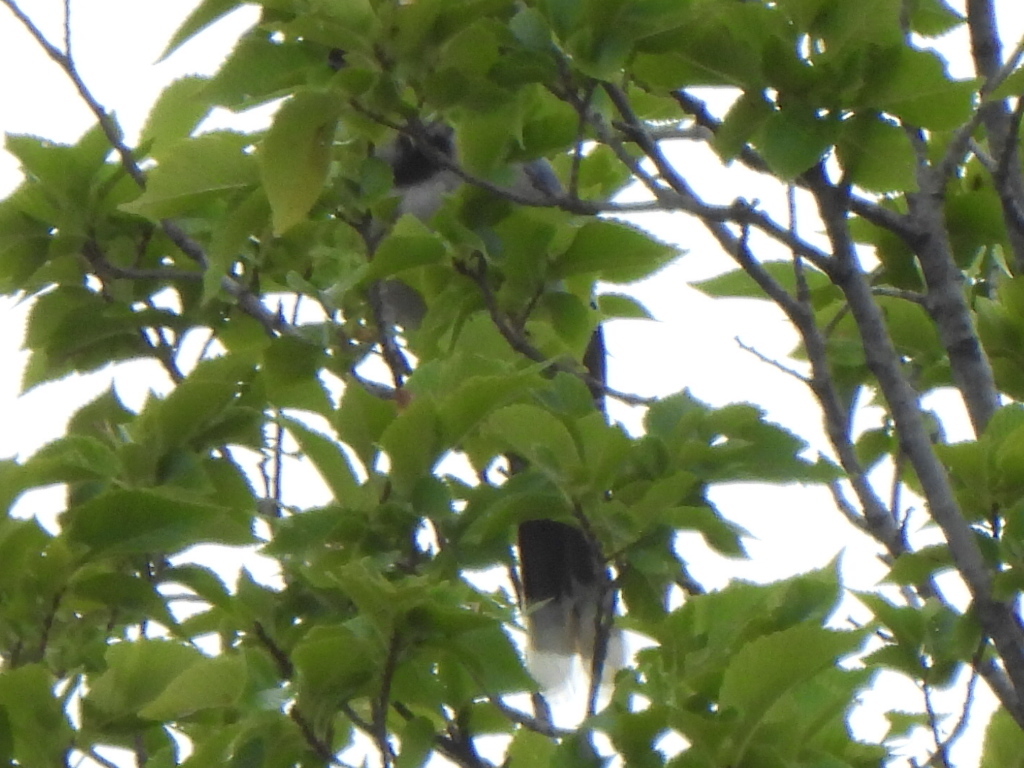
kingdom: Animalia
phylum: Chordata
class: Aves
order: Passeriformes
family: Corvidae
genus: Cyanocitta
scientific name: Cyanocitta cristata
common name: Blue jay
